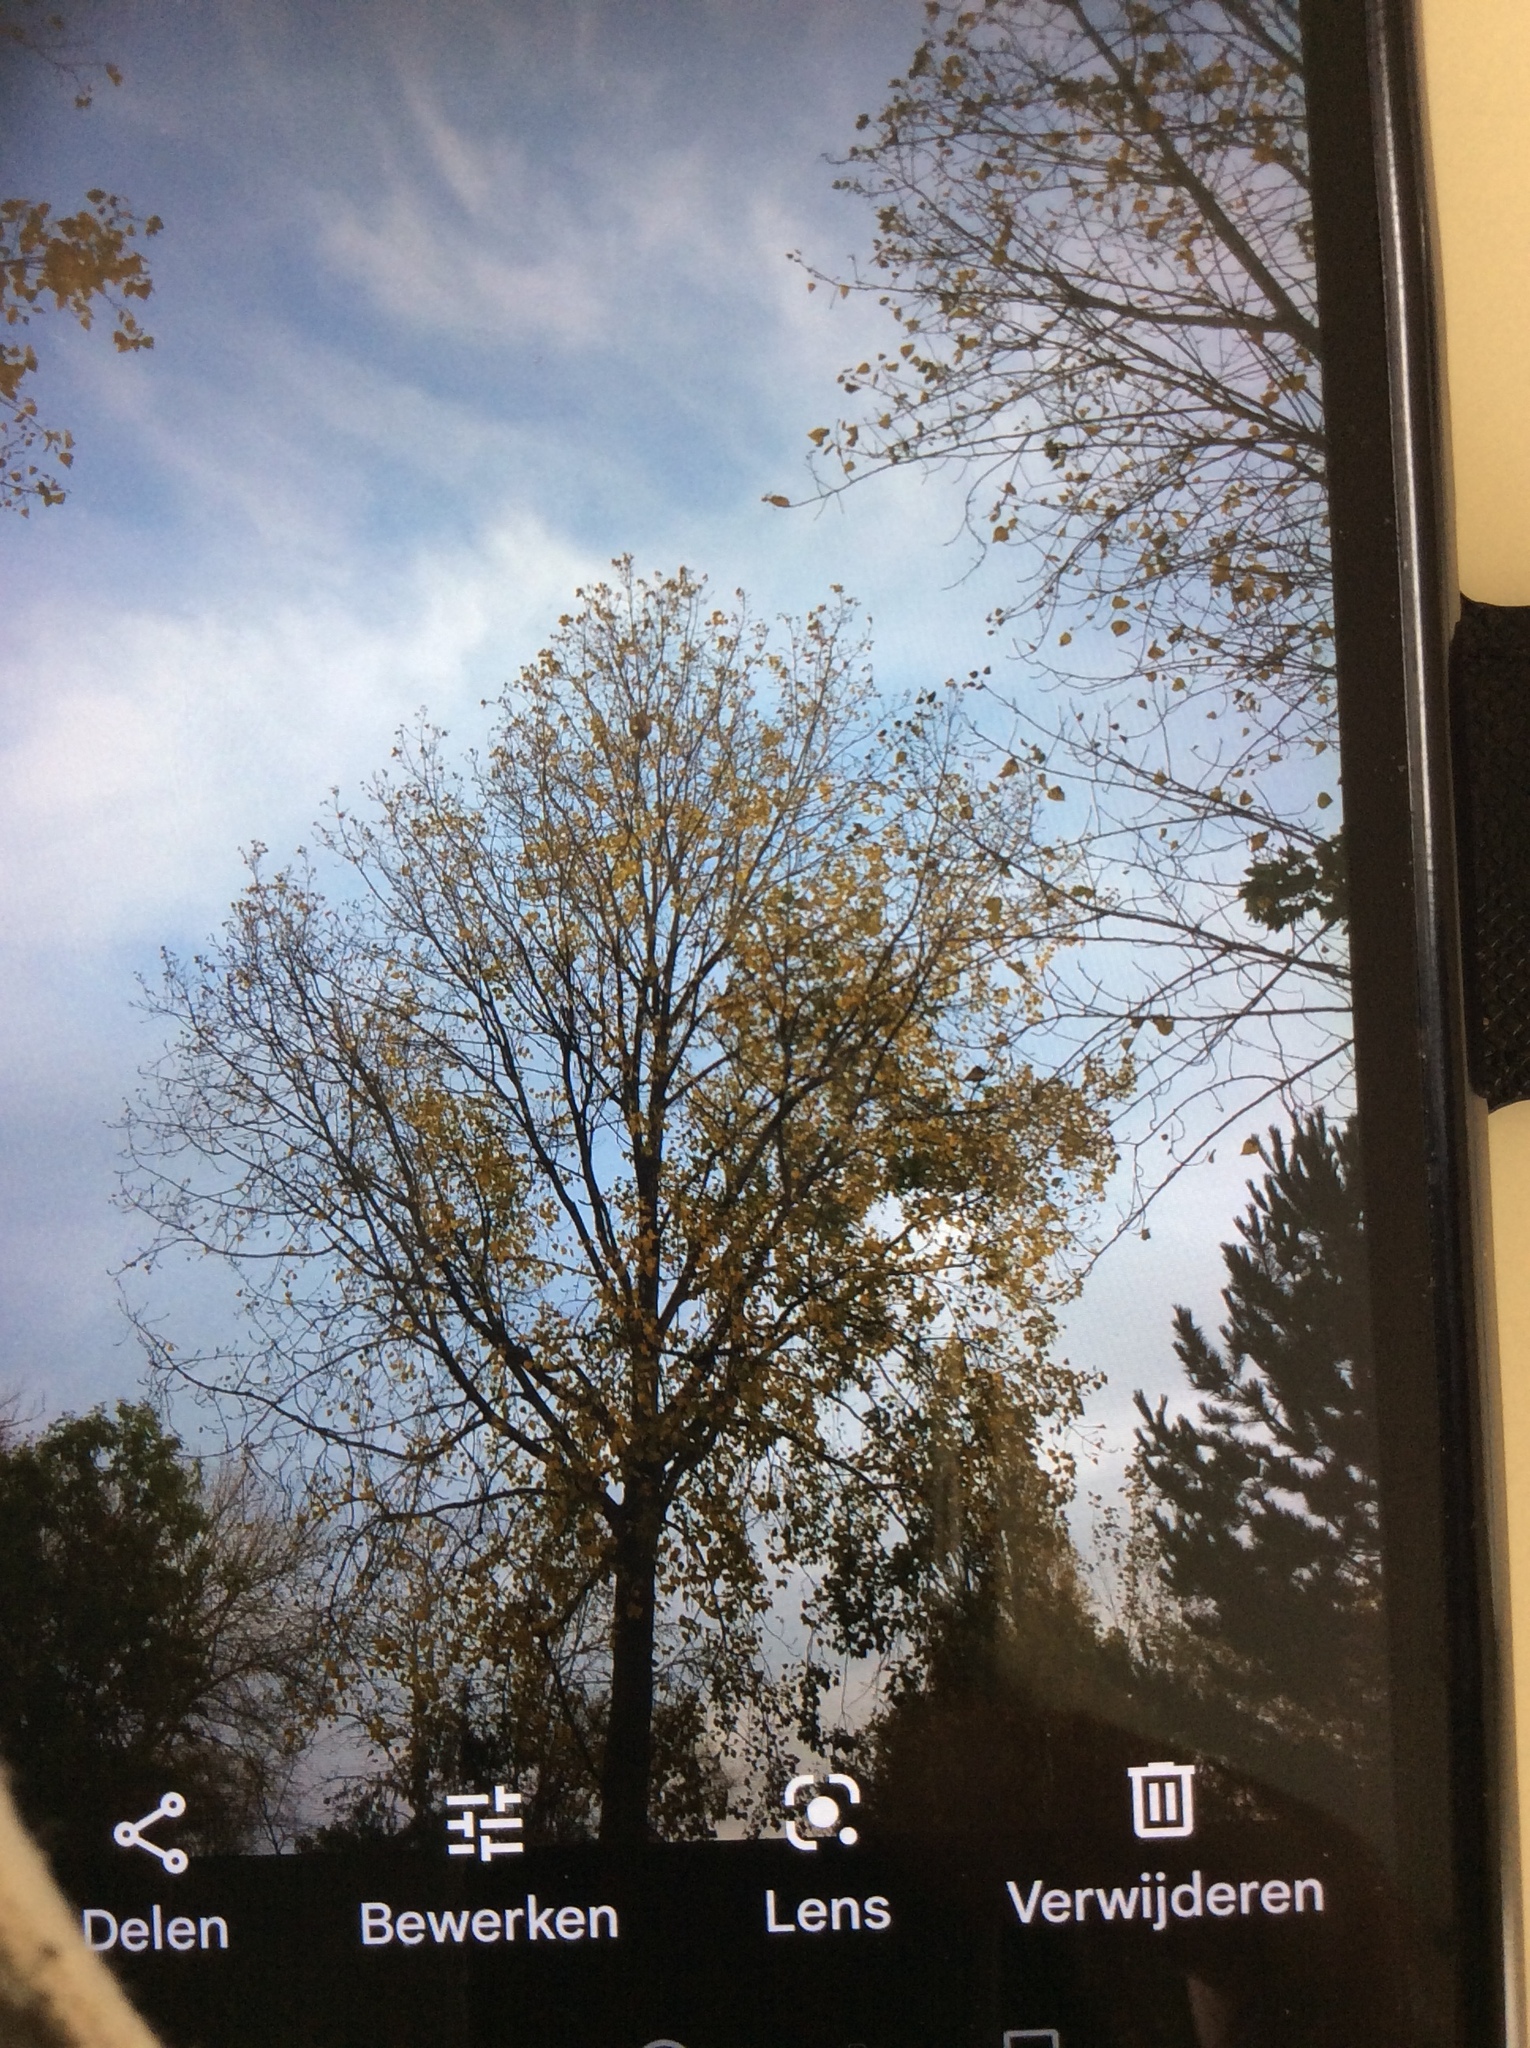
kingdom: Animalia
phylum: Arthropoda
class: Insecta
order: Hymenoptera
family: Vespidae
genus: Vespa
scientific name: Vespa velutina
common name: Asian hornet
